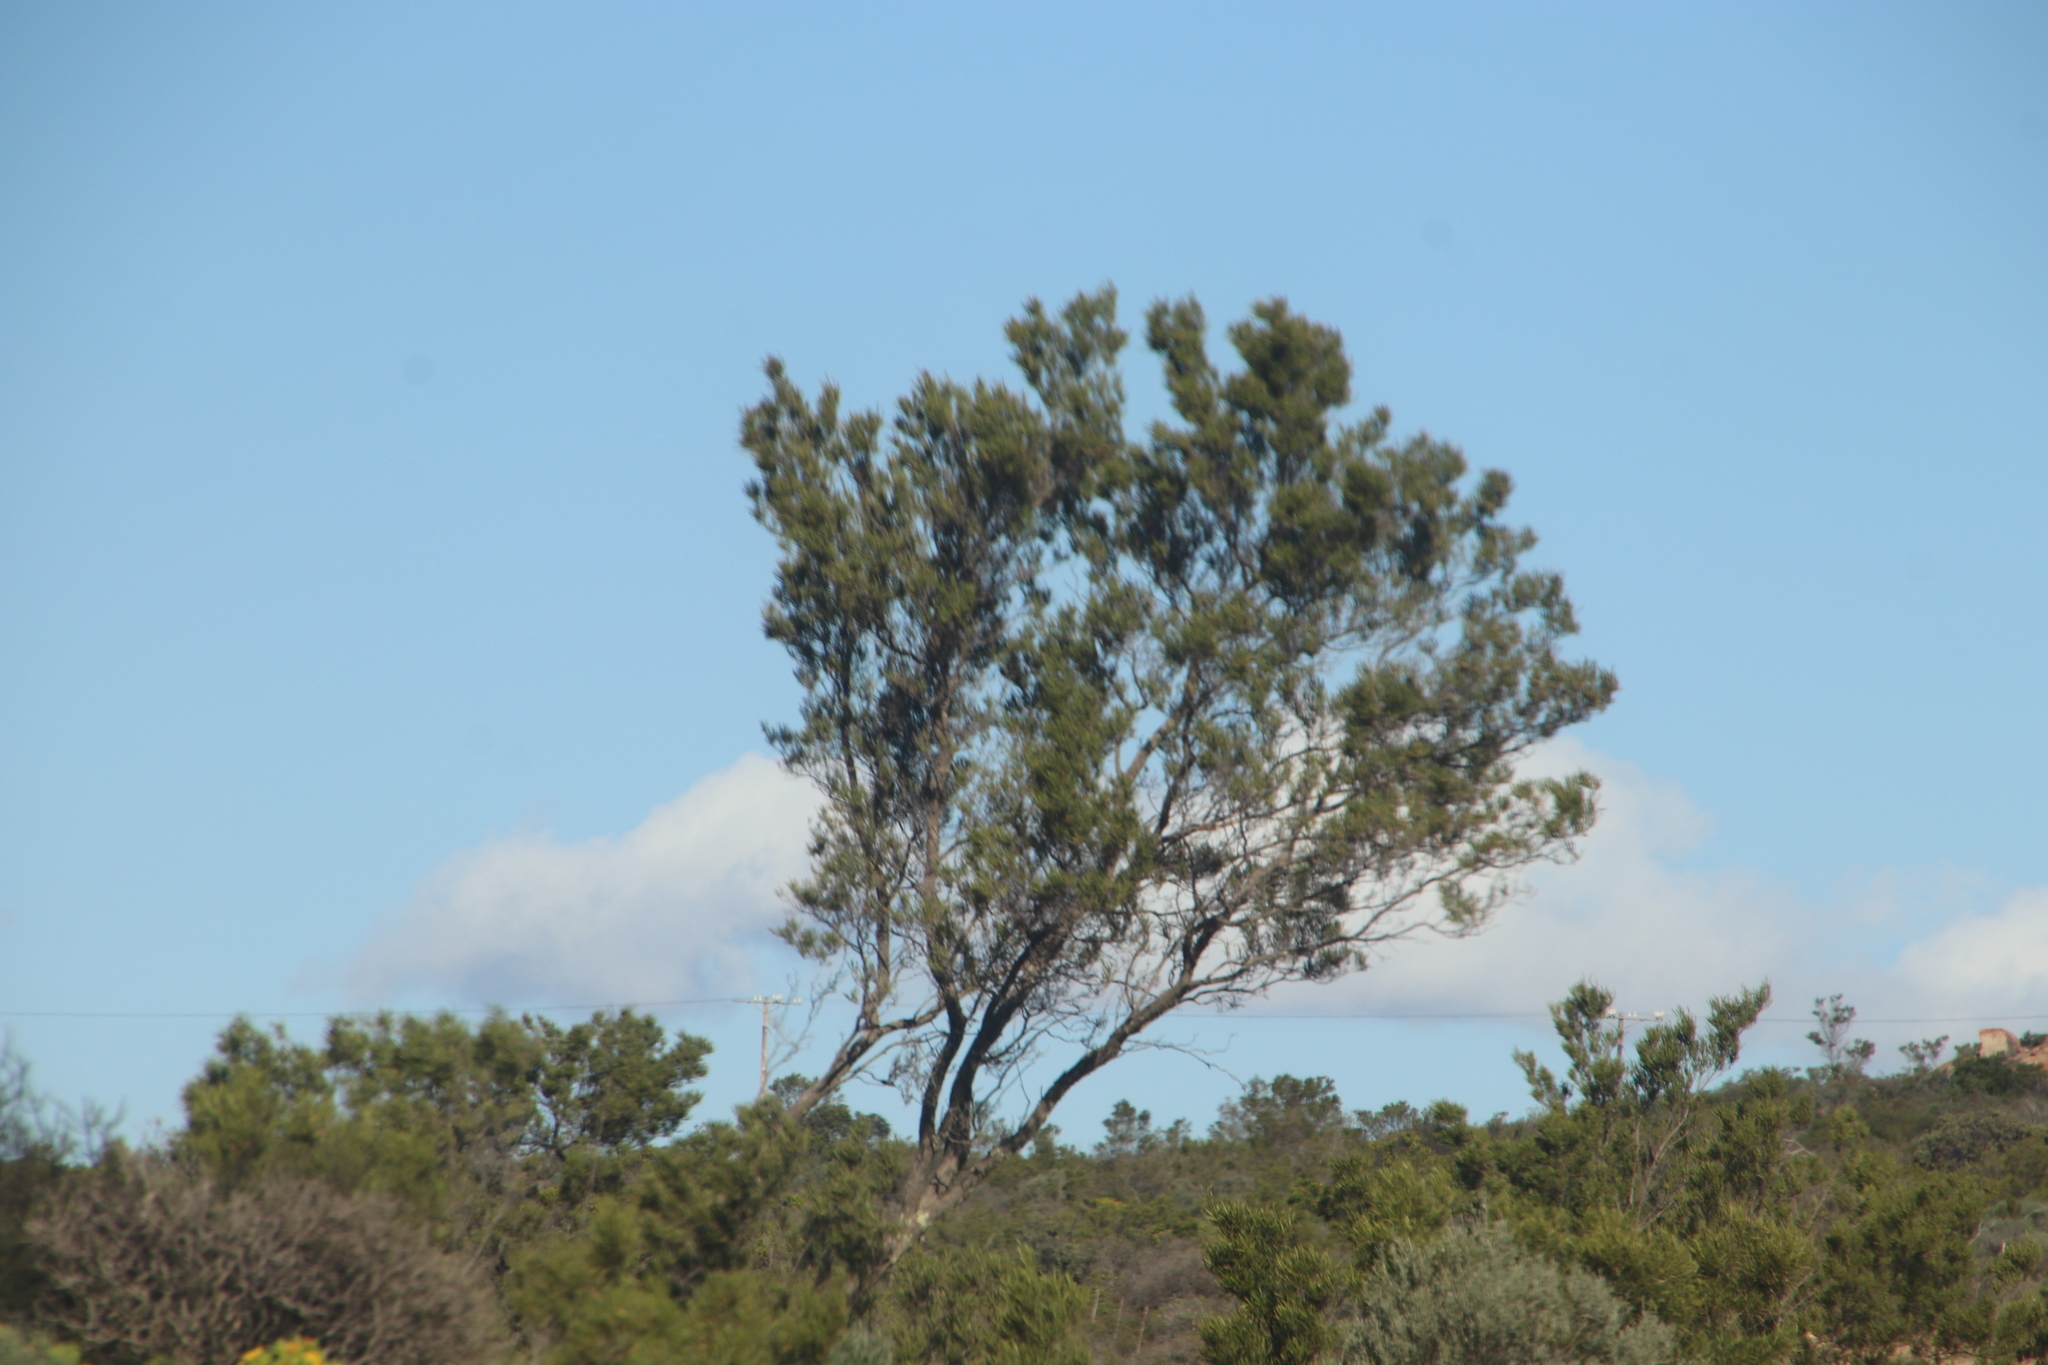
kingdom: Plantae
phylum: Tracheophyta
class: Magnoliopsida
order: Fabales
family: Fabaceae
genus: Acacia
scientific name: Acacia cyclops
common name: Coastal wattle
